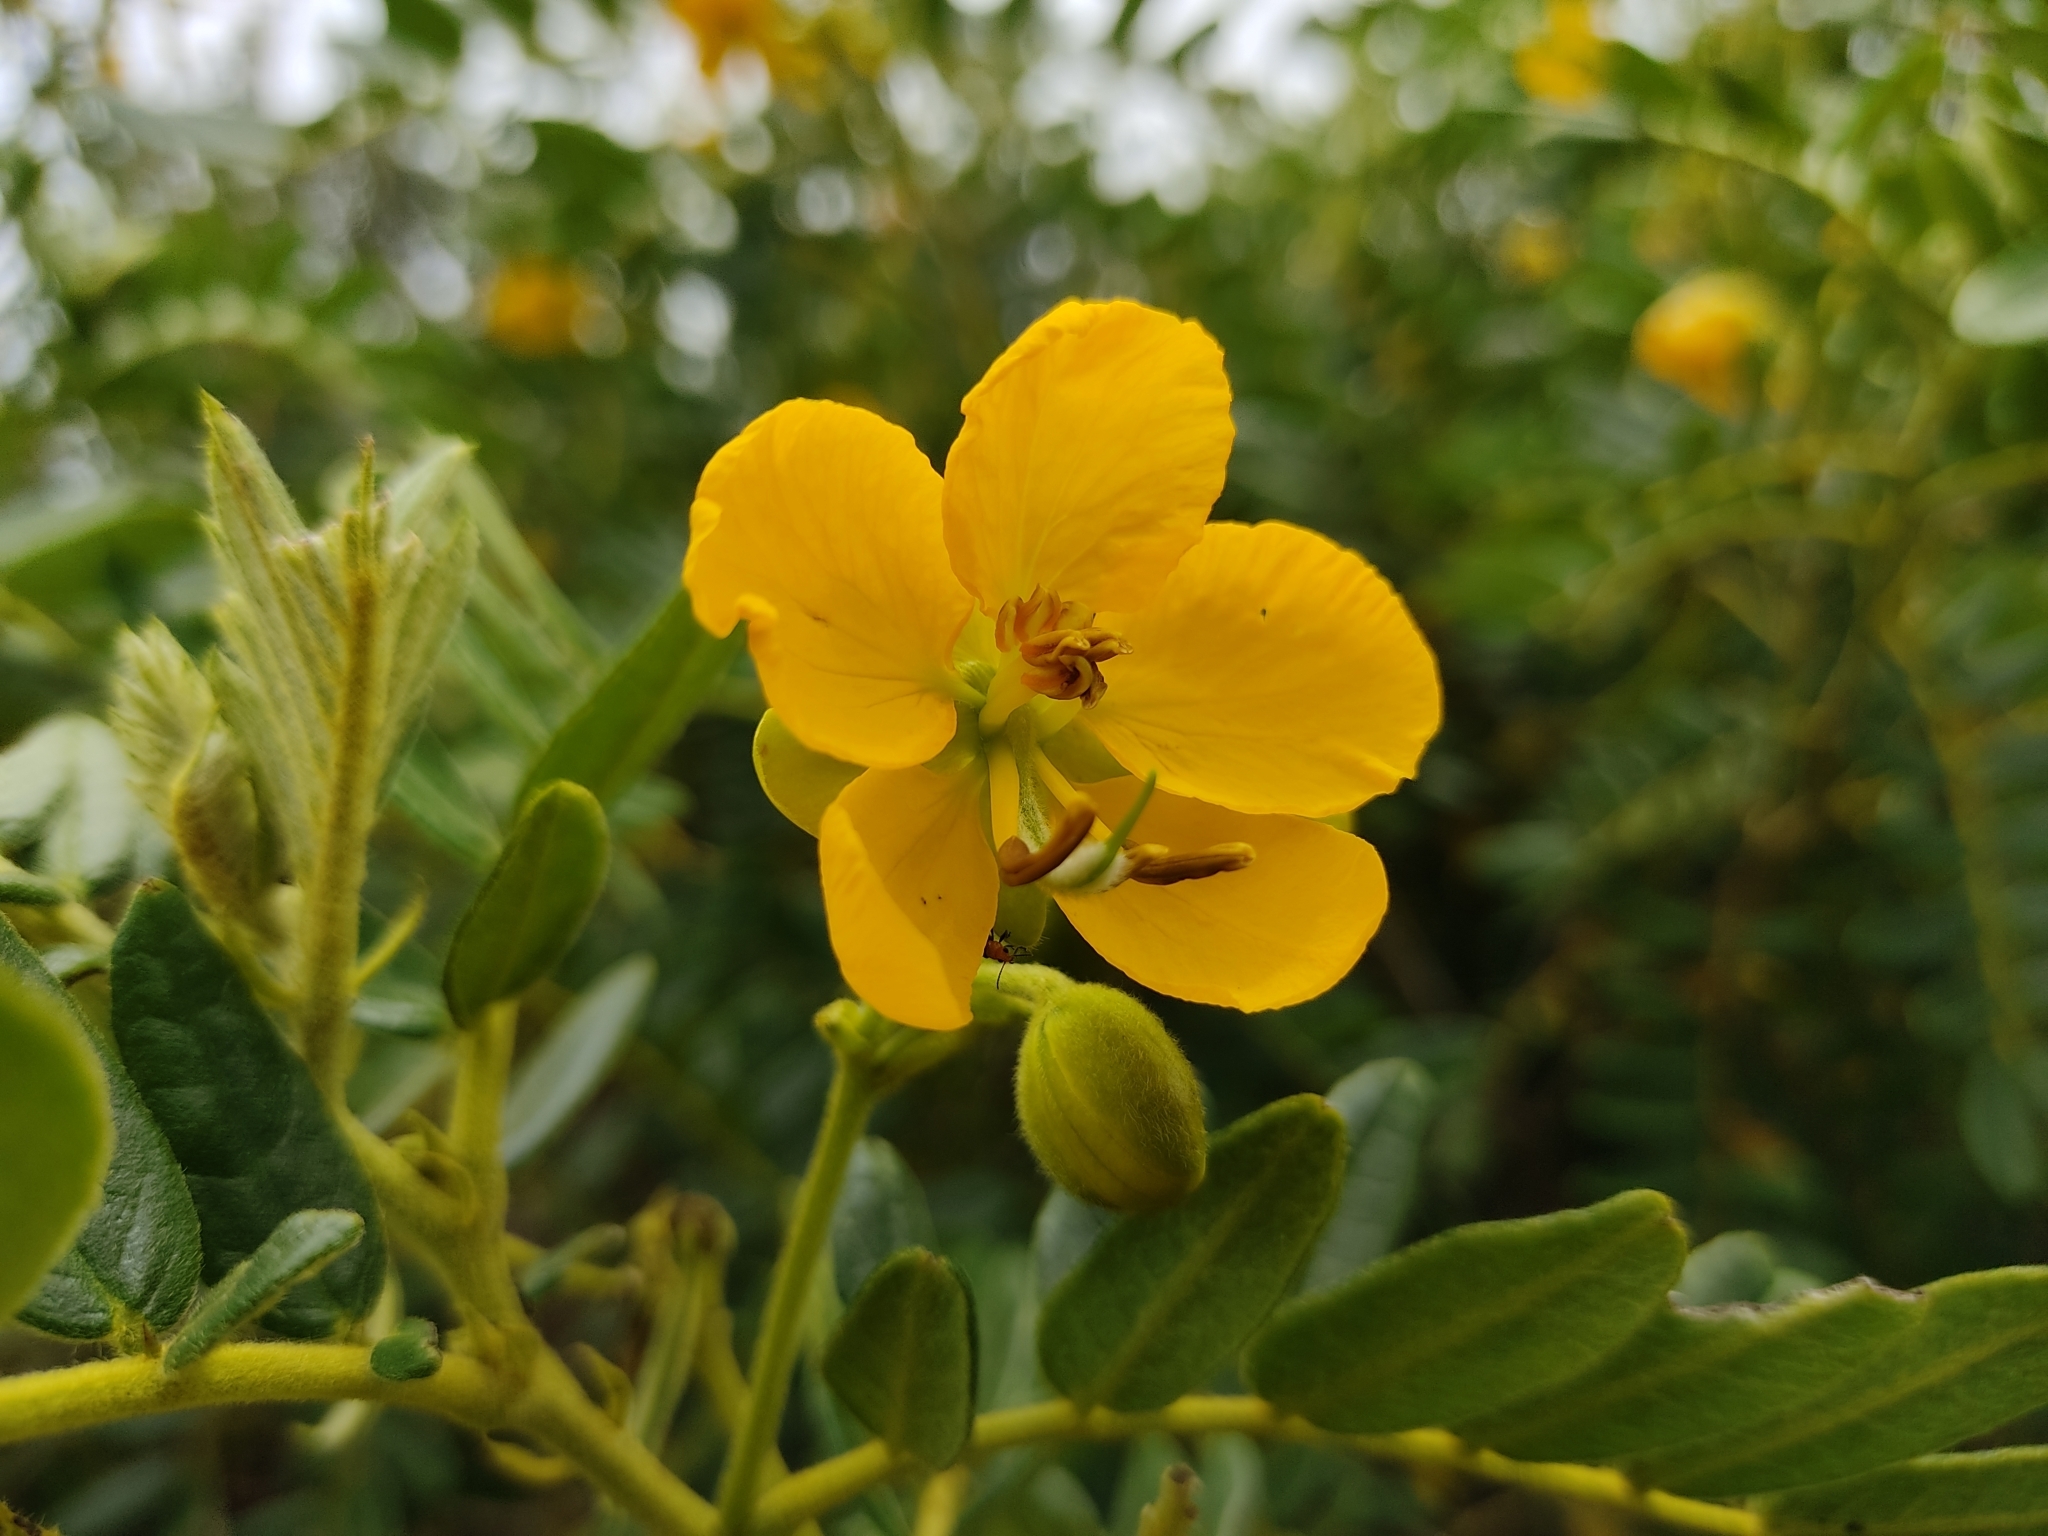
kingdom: Plantae
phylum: Tracheophyta
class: Magnoliopsida
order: Fabales
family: Fabaceae
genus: Senna
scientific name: Senna multiglandulosa
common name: Glandular senna
